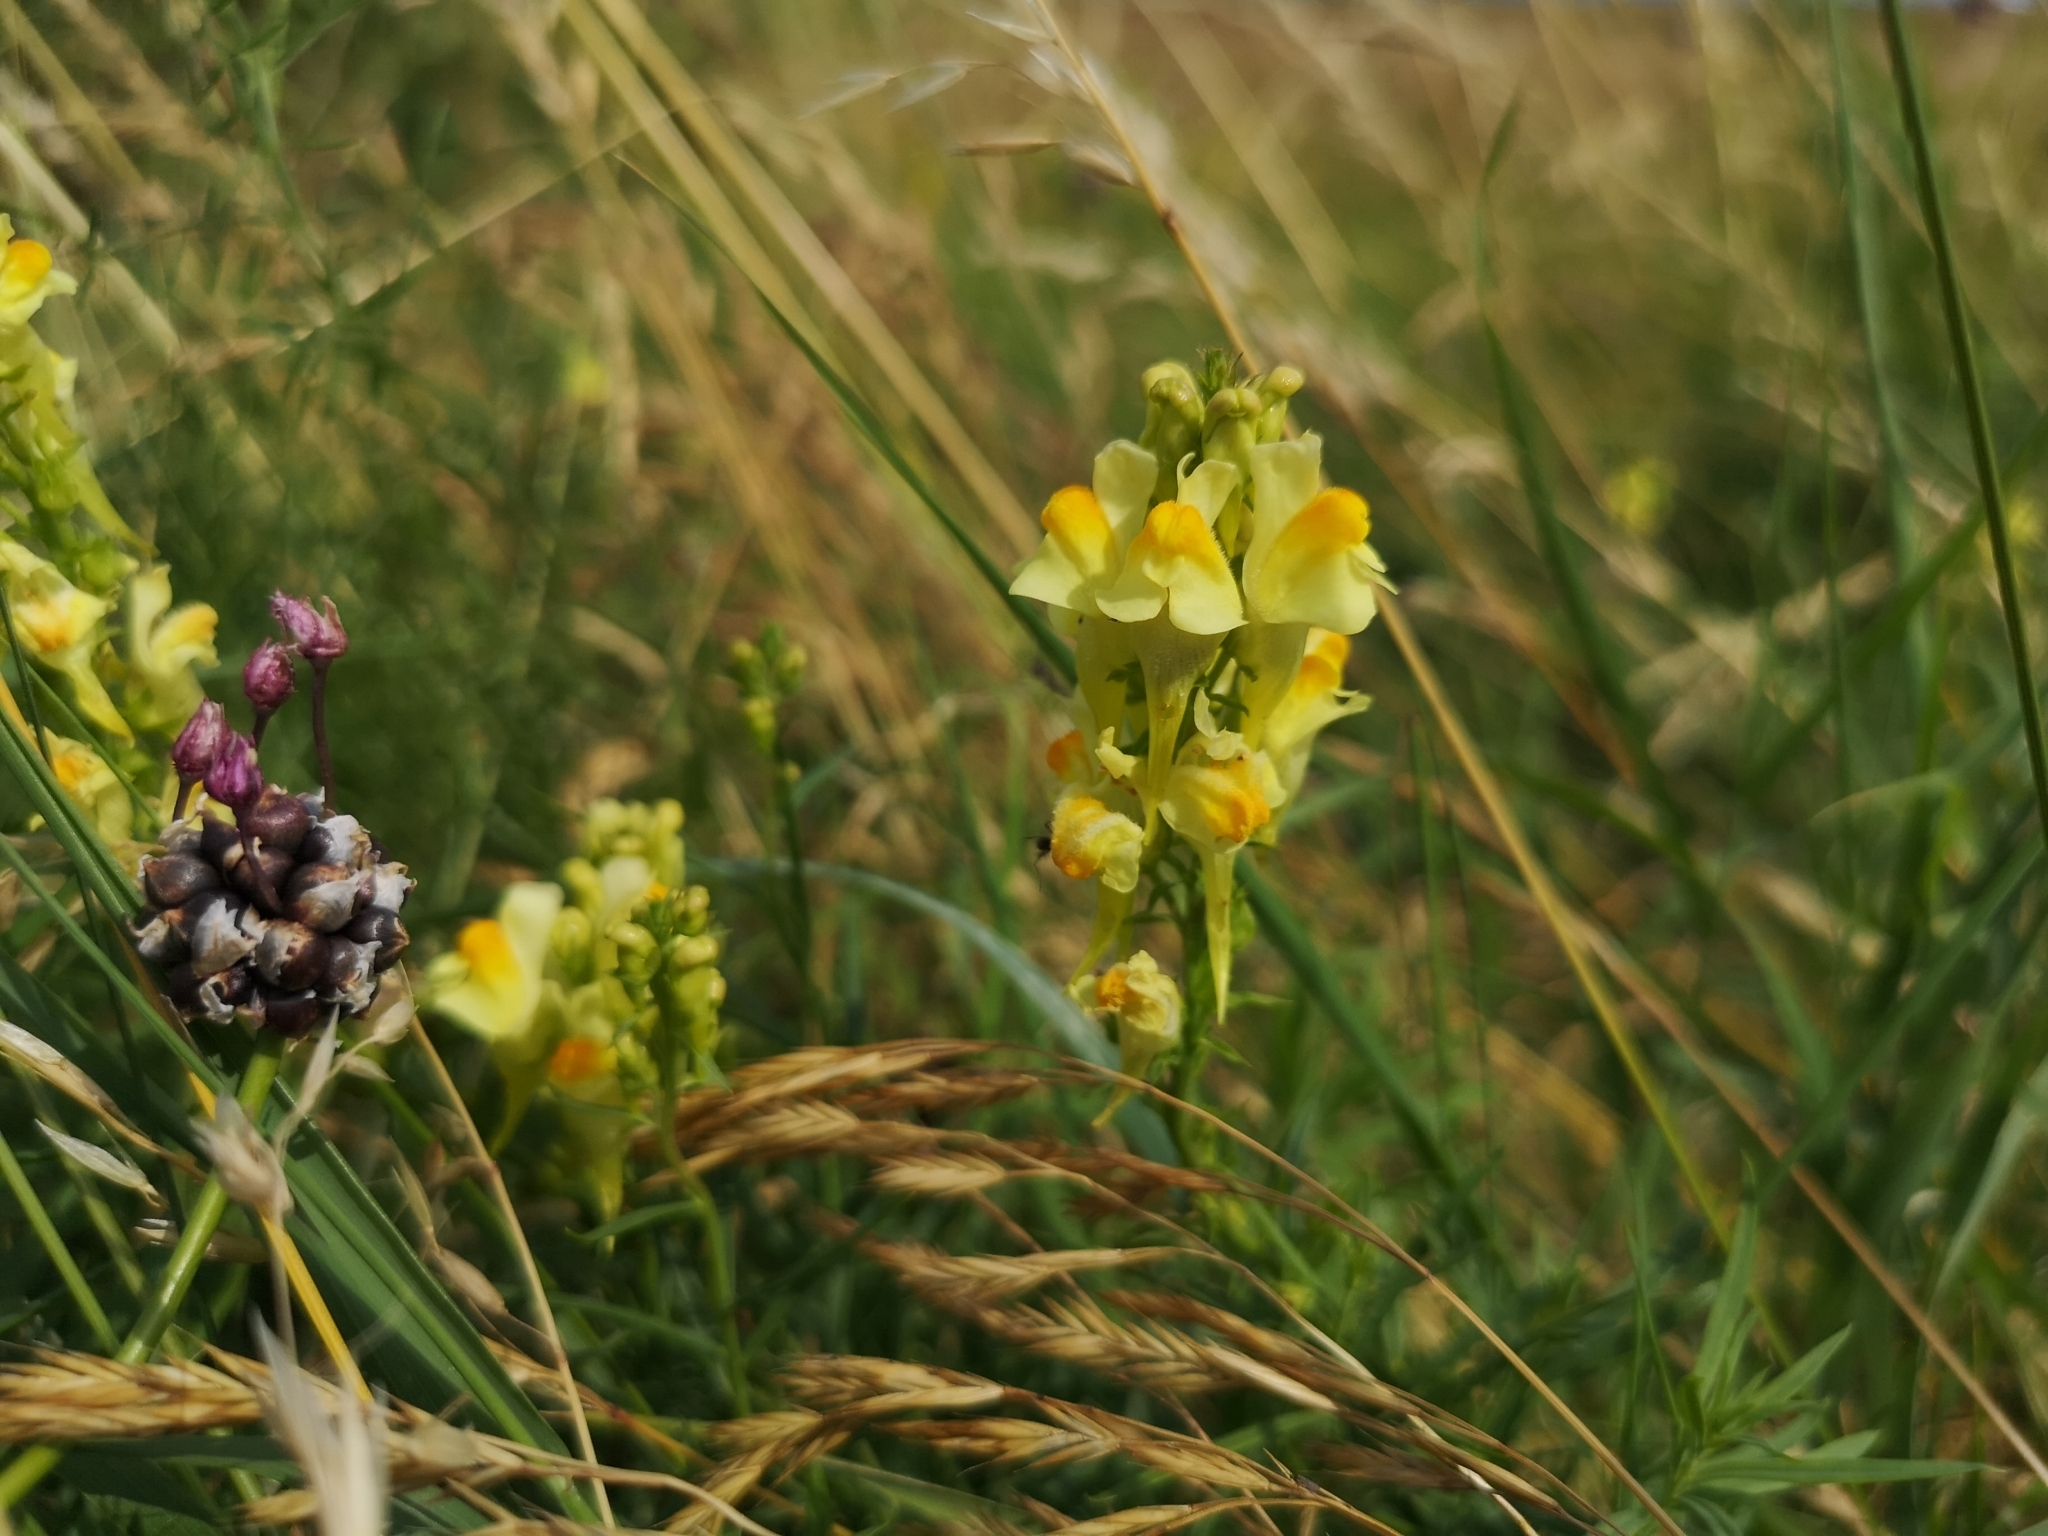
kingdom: Plantae
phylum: Tracheophyta
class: Magnoliopsida
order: Lamiales
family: Plantaginaceae
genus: Linaria
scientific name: Linaria vulgaris
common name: Butter and eggs
